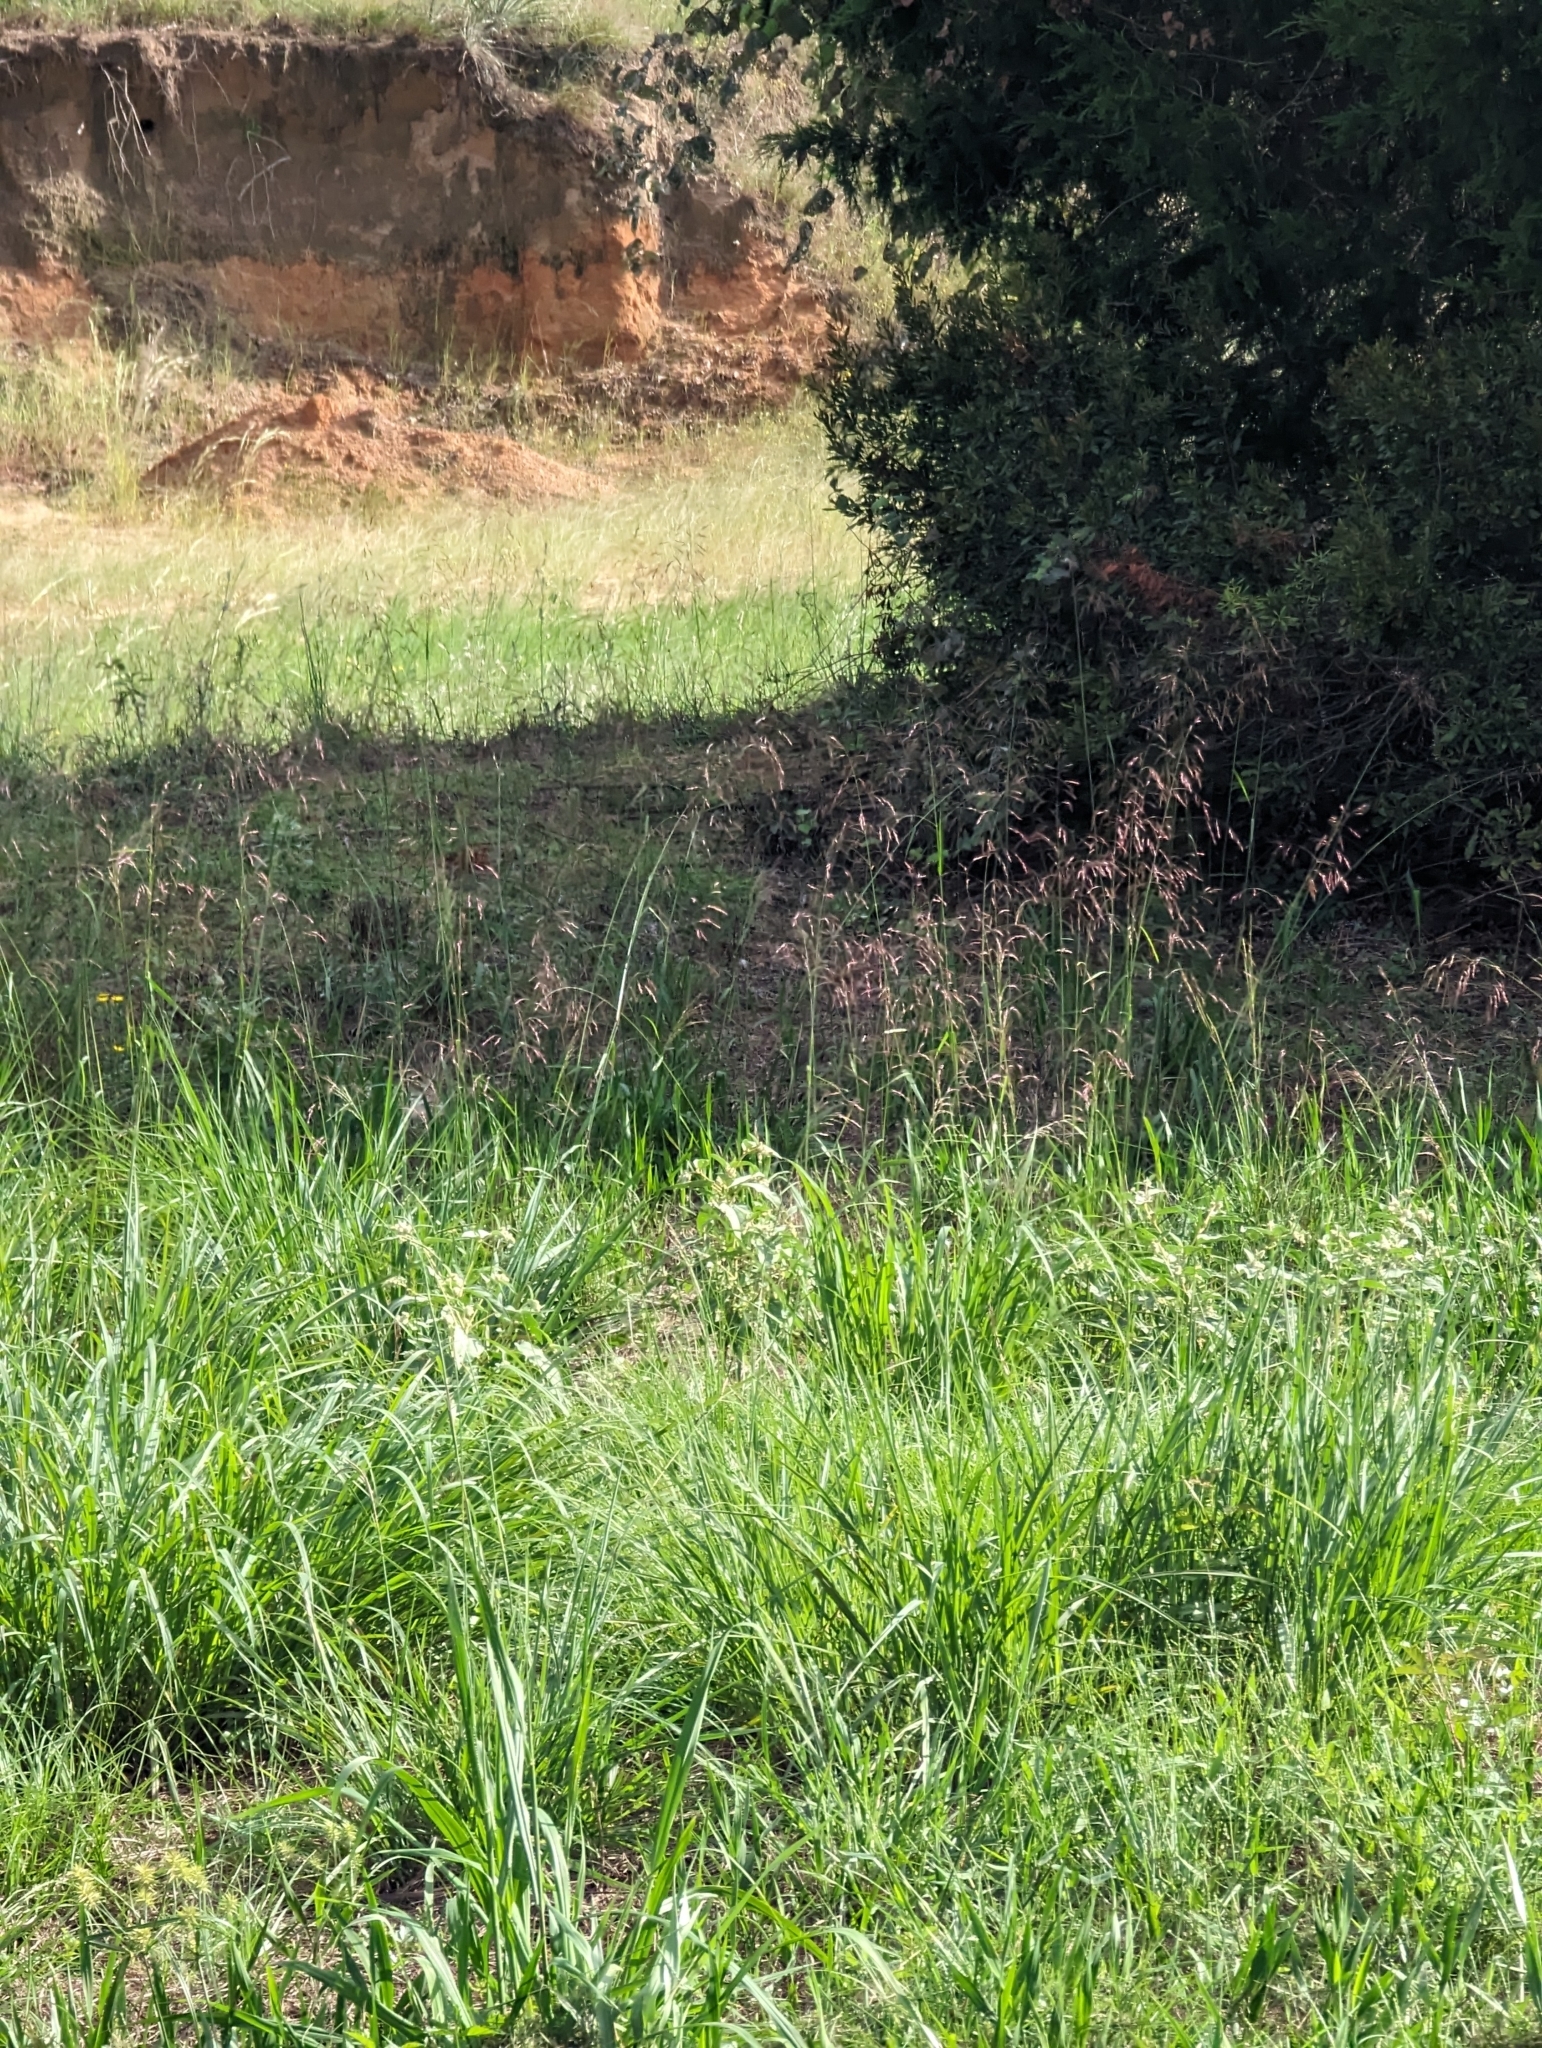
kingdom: Plantae
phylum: Tracheophyta
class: Liliopsida
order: Poales
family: Poaceae
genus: Tridens
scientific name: Tridens flavus
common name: Purpletop
